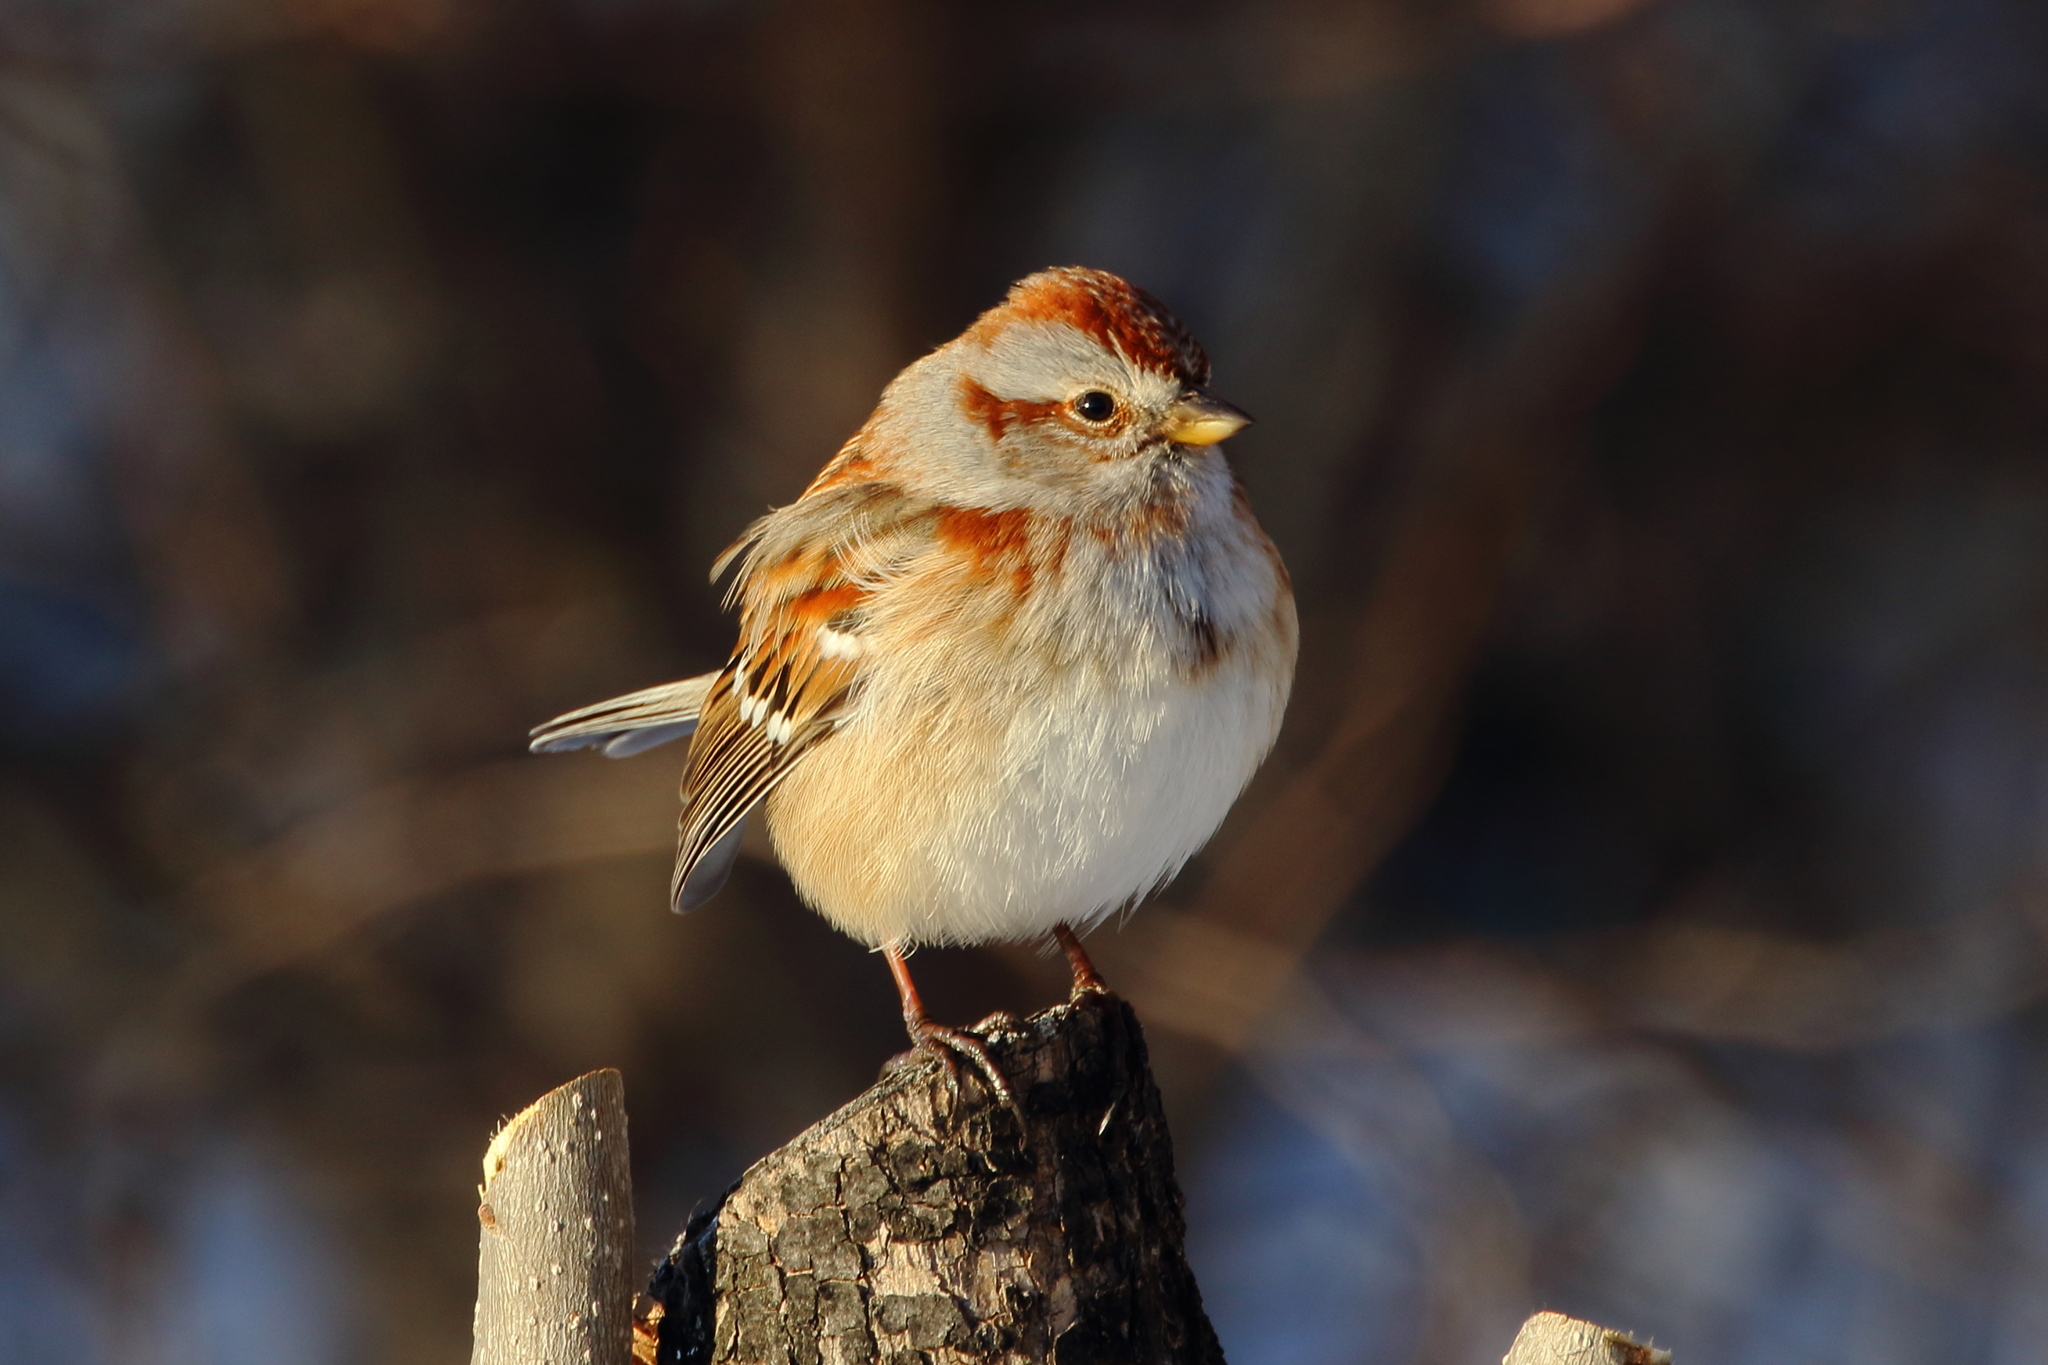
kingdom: Animalia
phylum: Chordata
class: Aves
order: Passeriformes
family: Passerellidae
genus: Spizelloides
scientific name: Spizelloides arborea
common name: American tree sparrow
